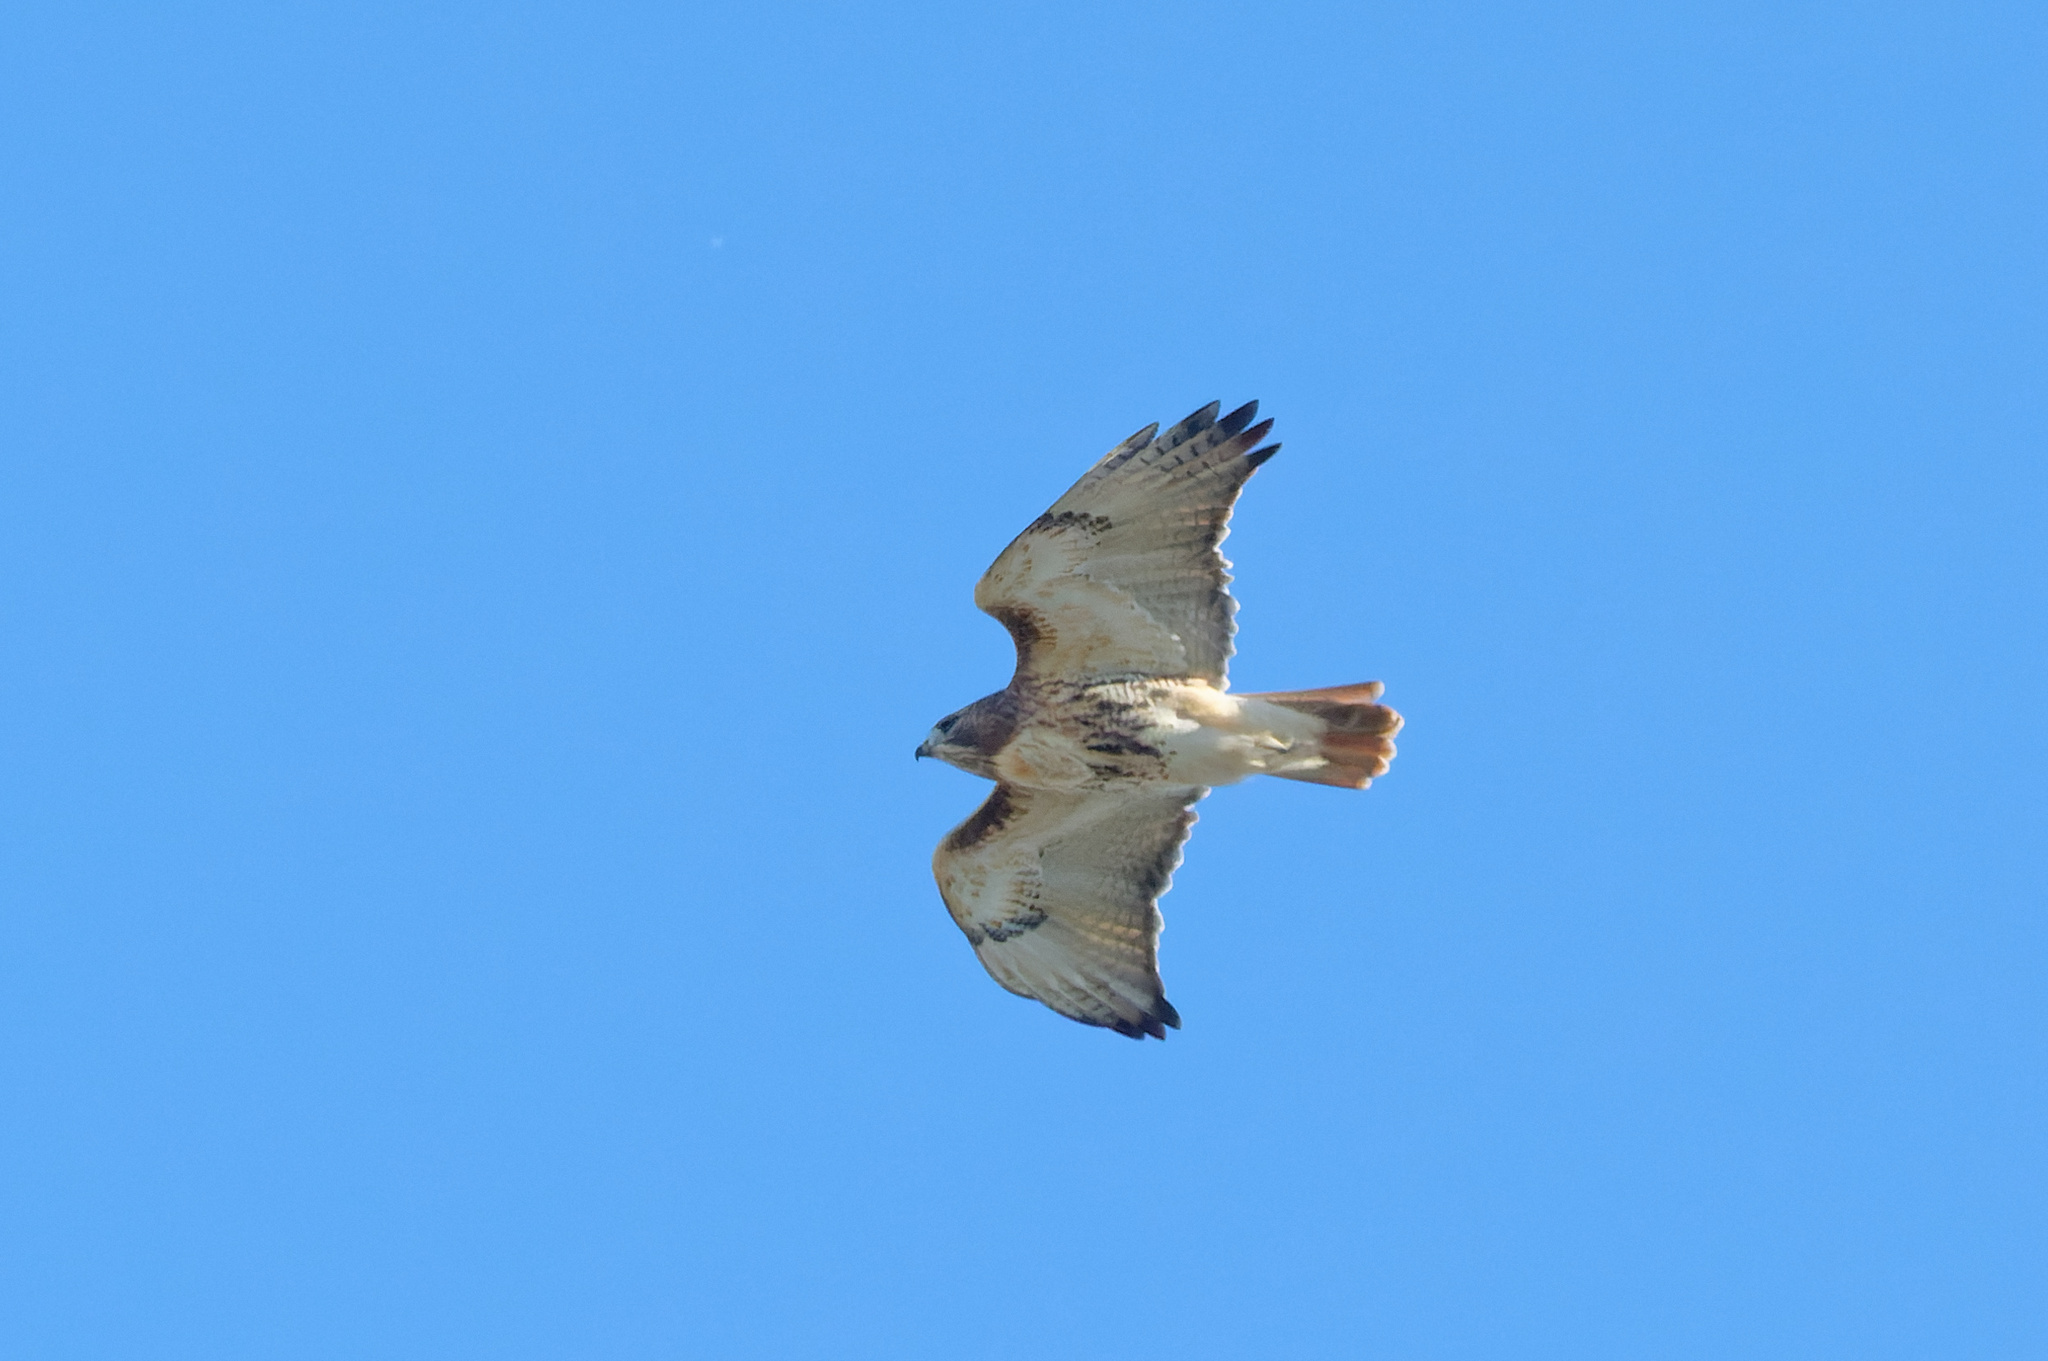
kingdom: Animalia
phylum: Chordata
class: Aves
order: Accipitriformes
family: Accipitridae
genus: Buteo
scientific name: Buteo jamaicensis
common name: Red-tailed hawk
